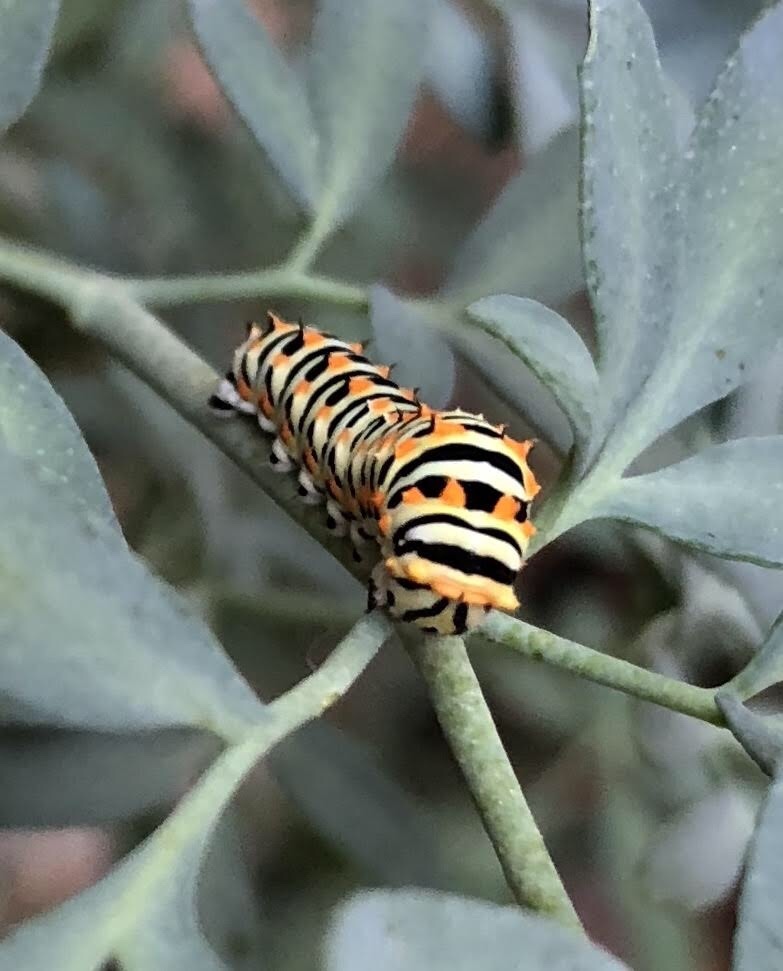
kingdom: Animalia
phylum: Arthropoda
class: Insecta
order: Lepidoptera
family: Papilionidae
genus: Papilio
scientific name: Papilio machaon
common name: Swallowtail
